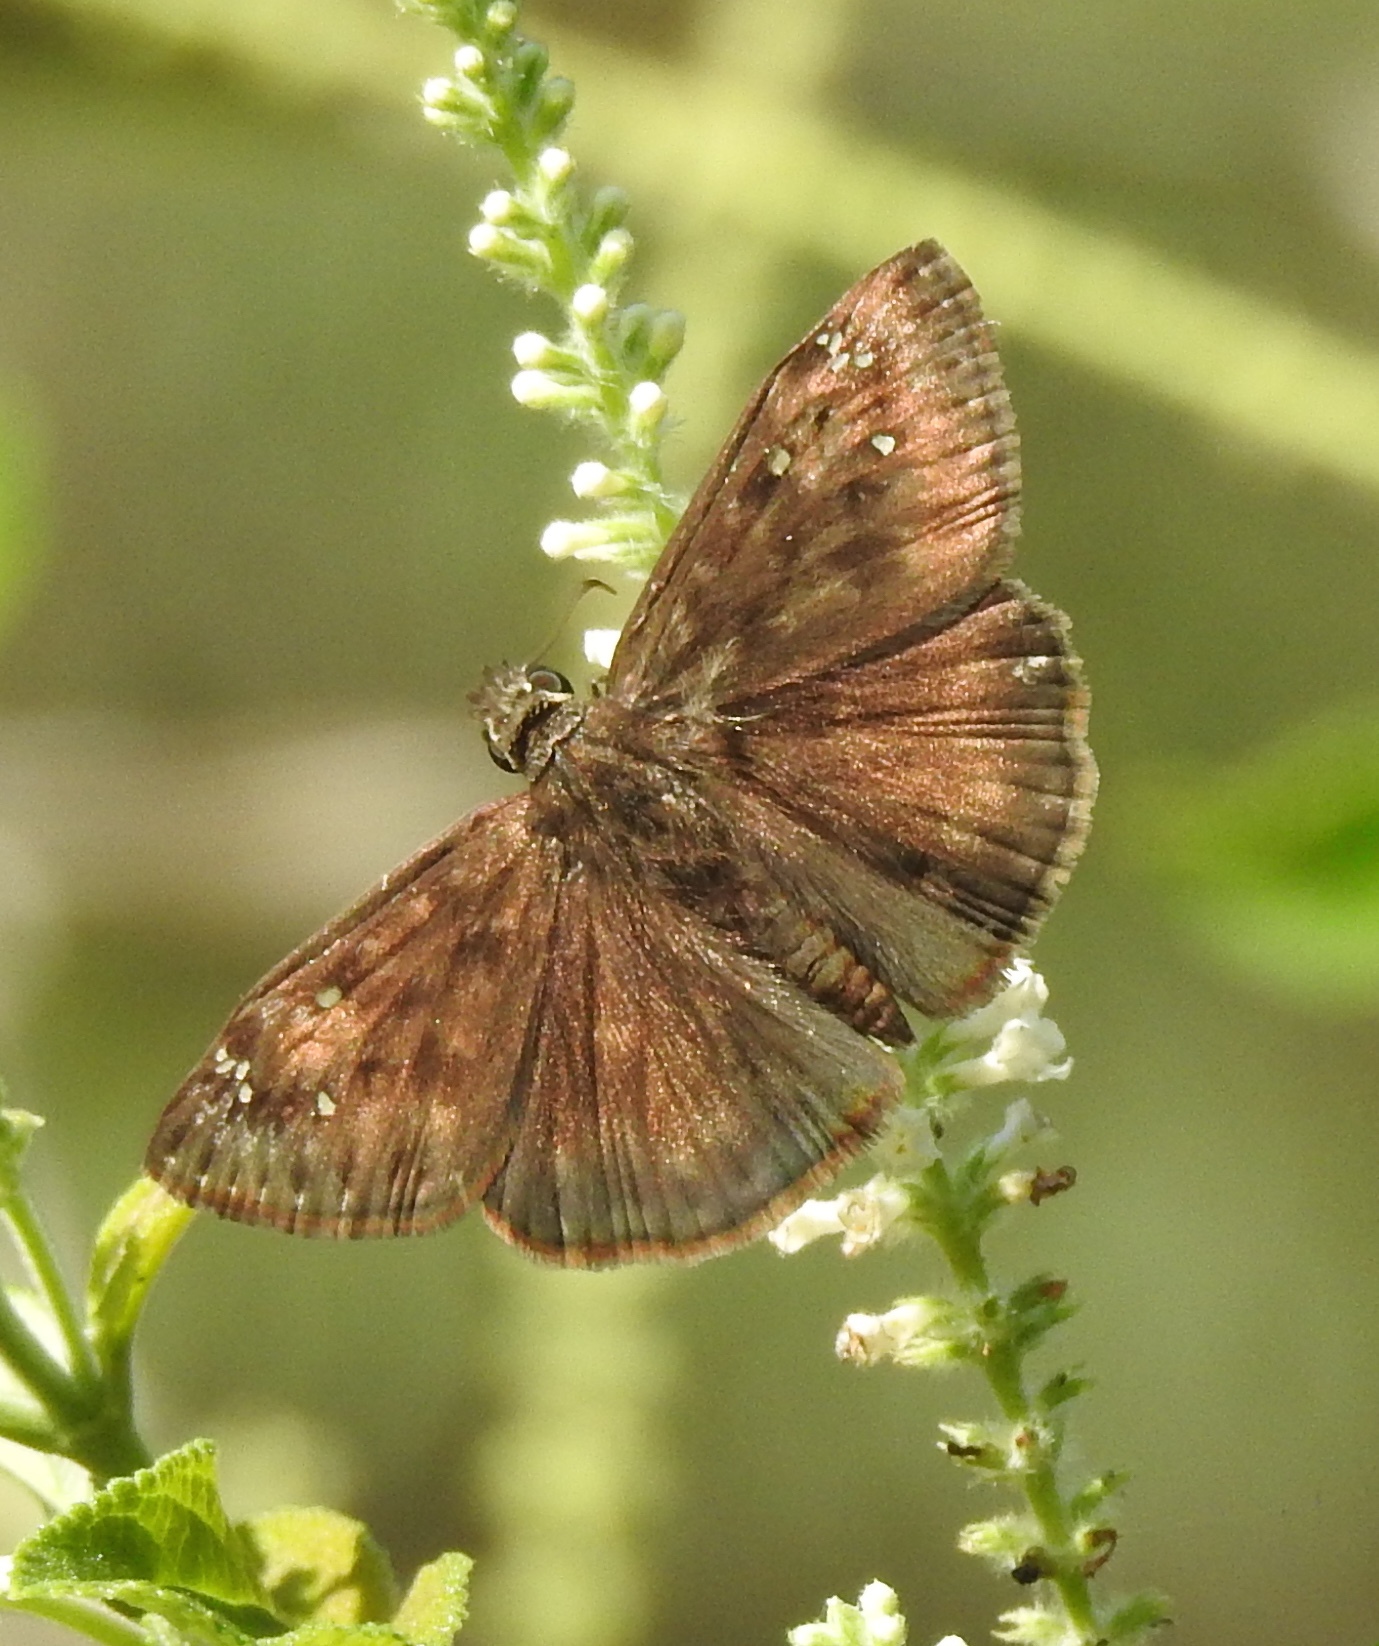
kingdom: Animalia
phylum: Arthropoda
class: Insecta
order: Lepidoptera
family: Hesperiidae
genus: Erynnis
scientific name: Erynnis horatius
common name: Horace's duskywing
